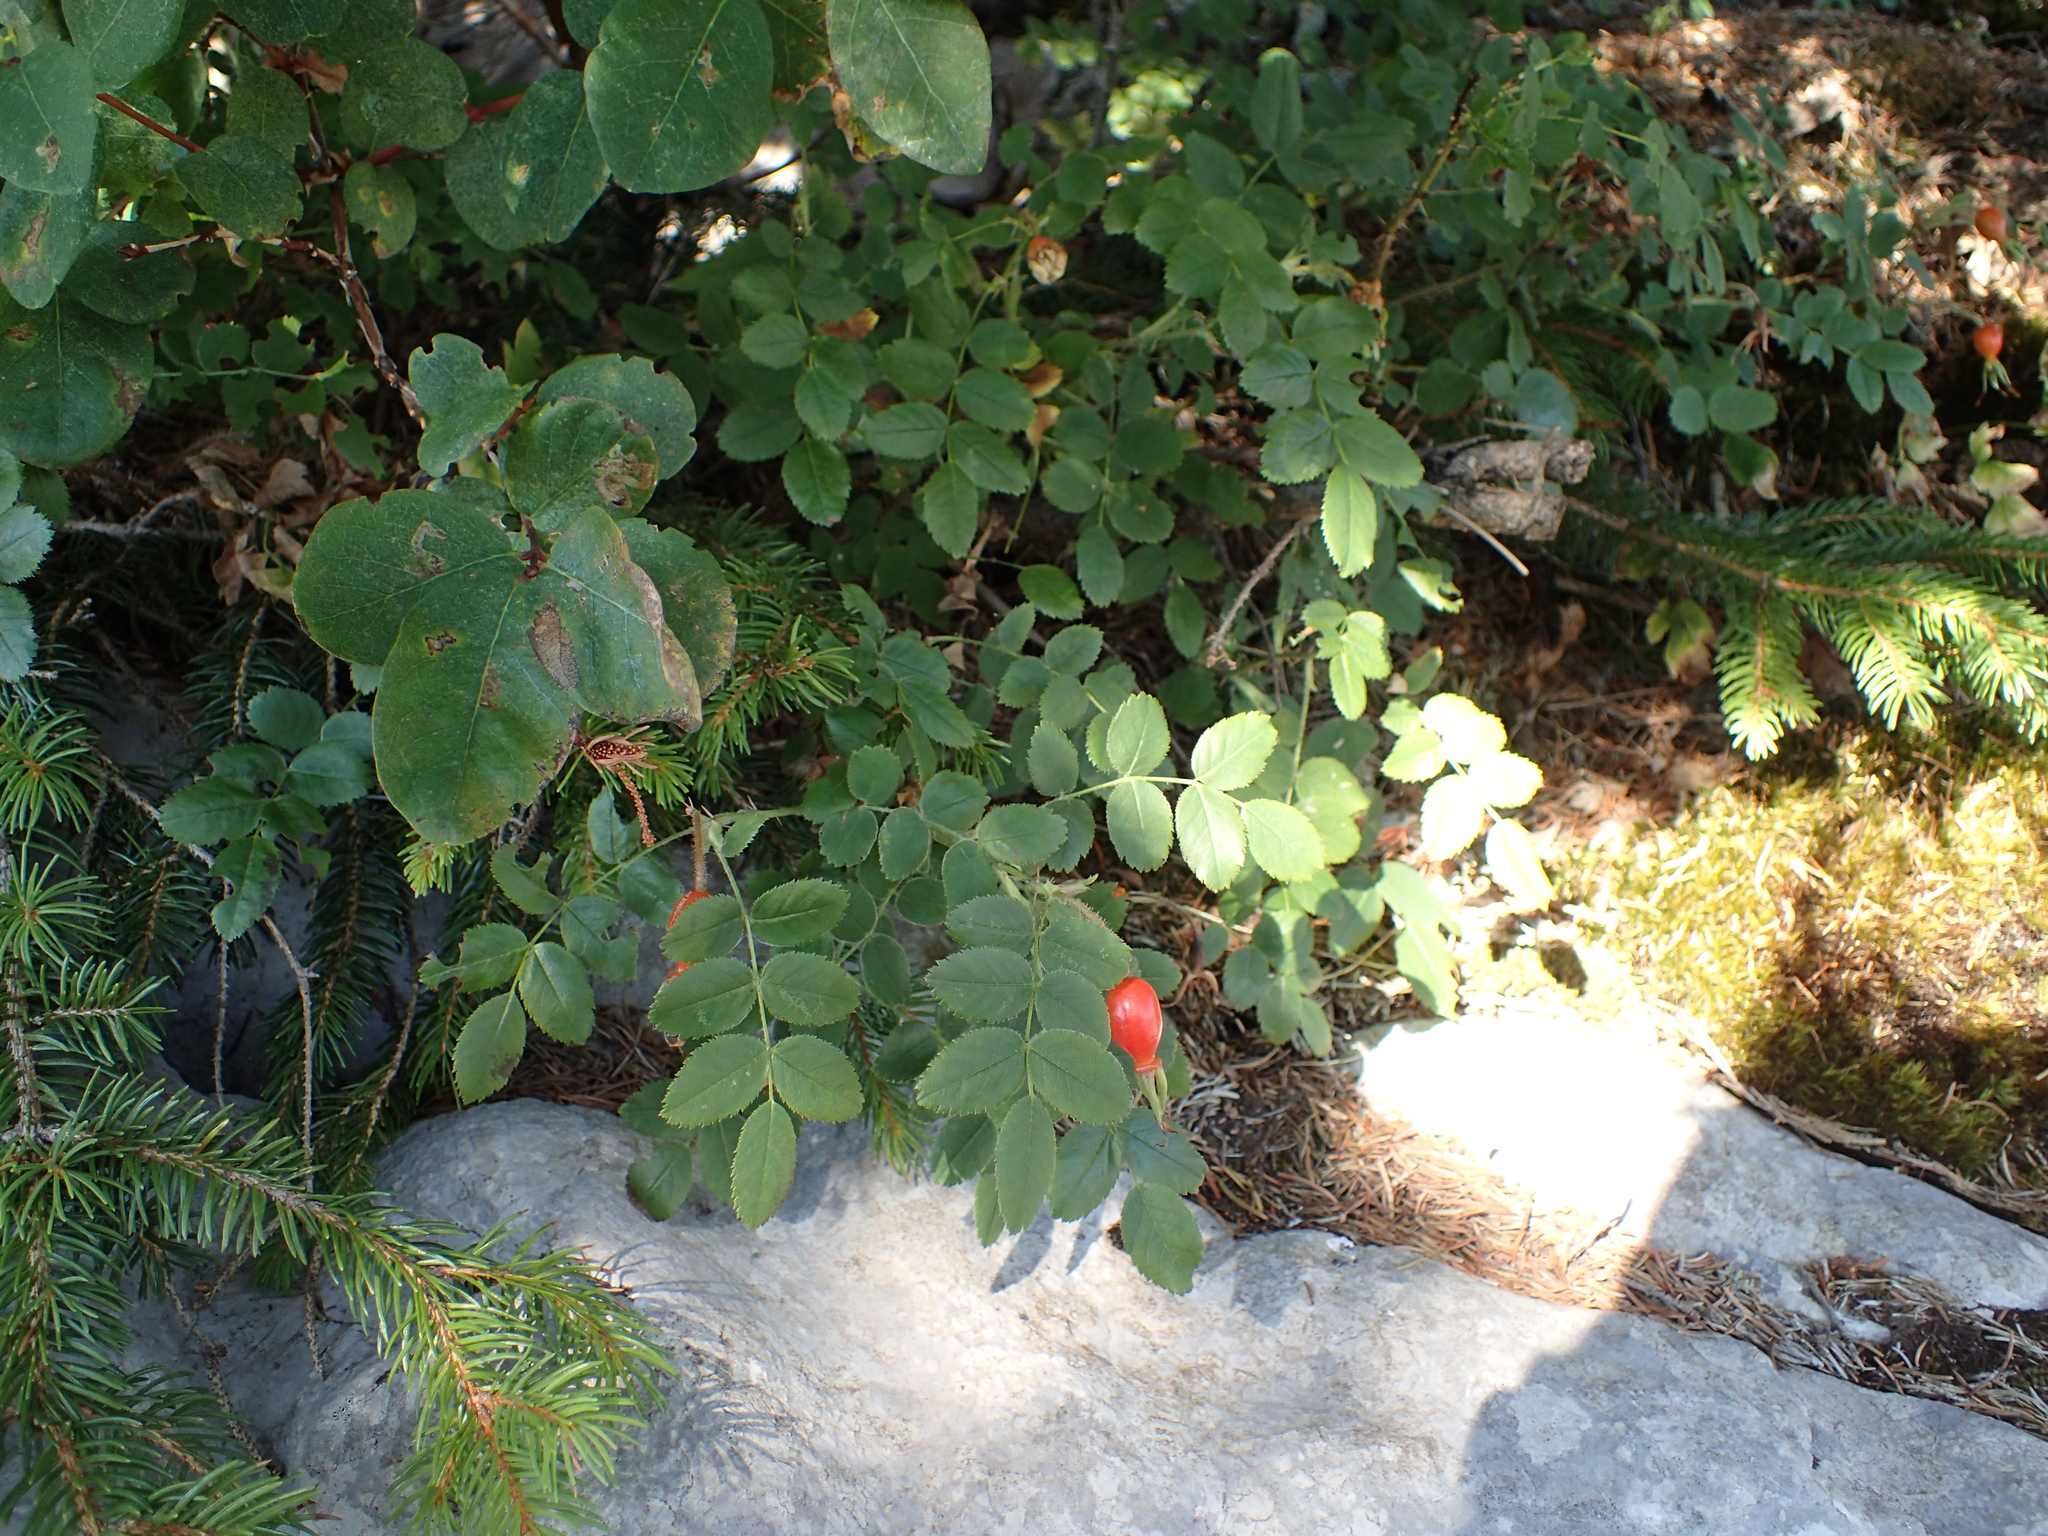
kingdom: Plantae
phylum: Tracheophyta
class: Magnoliopsida
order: Rosales
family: Rosaceae
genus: Rosa
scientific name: Rosa pendulina
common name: Alpine rose
